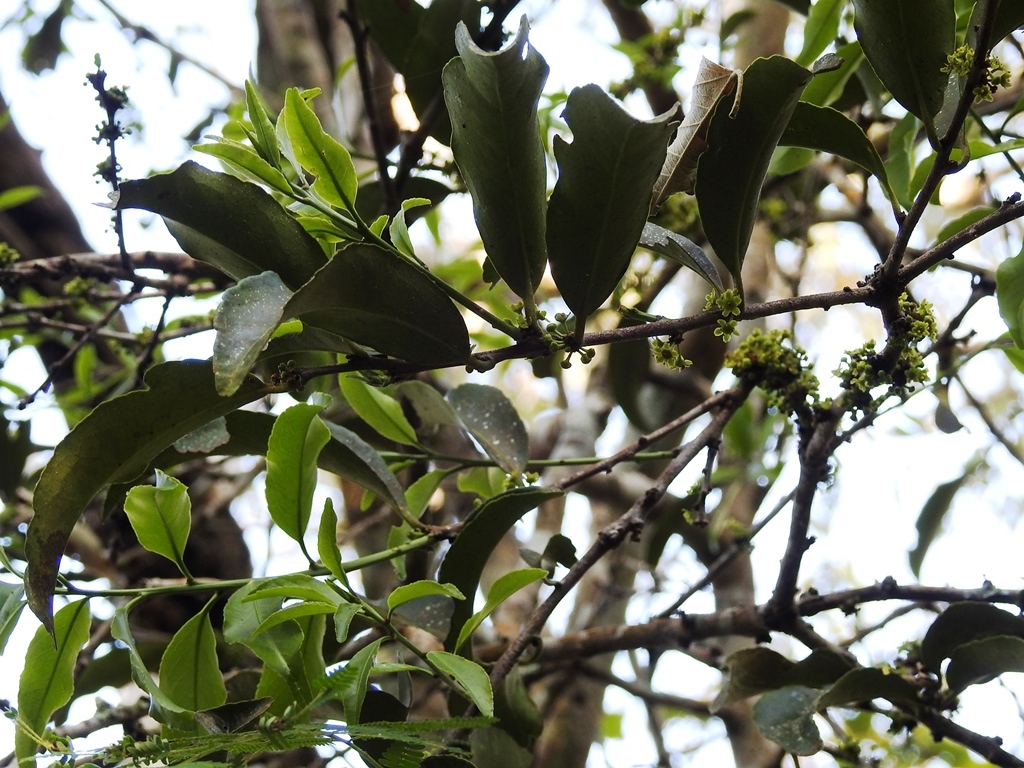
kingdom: Plantae
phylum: Tracheophyta
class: Magnoliopsida
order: Celastrales
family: Celastraceae
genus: Monteverdia
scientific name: Monteverdia stipitata
